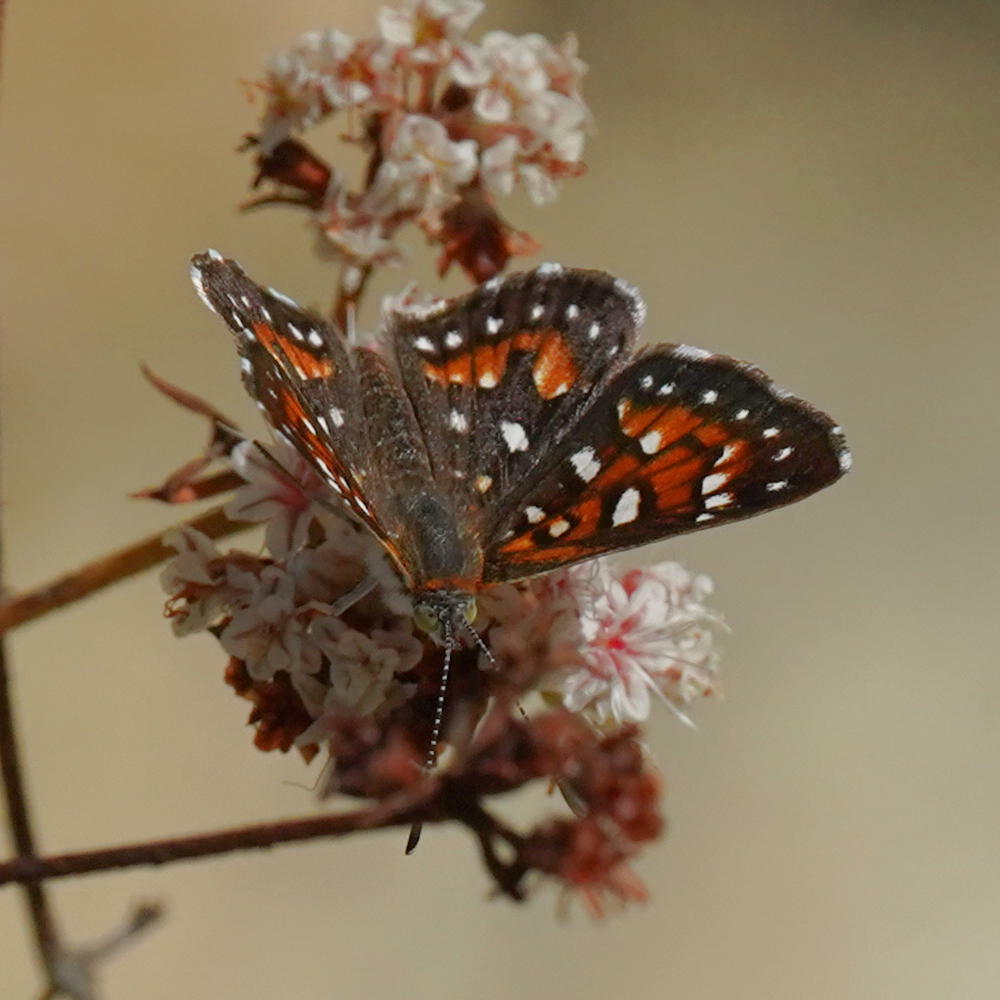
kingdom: Animalia
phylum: Arthropoda
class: Insecta
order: Lepidoptera
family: Riodinidae
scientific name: Riodinidae
